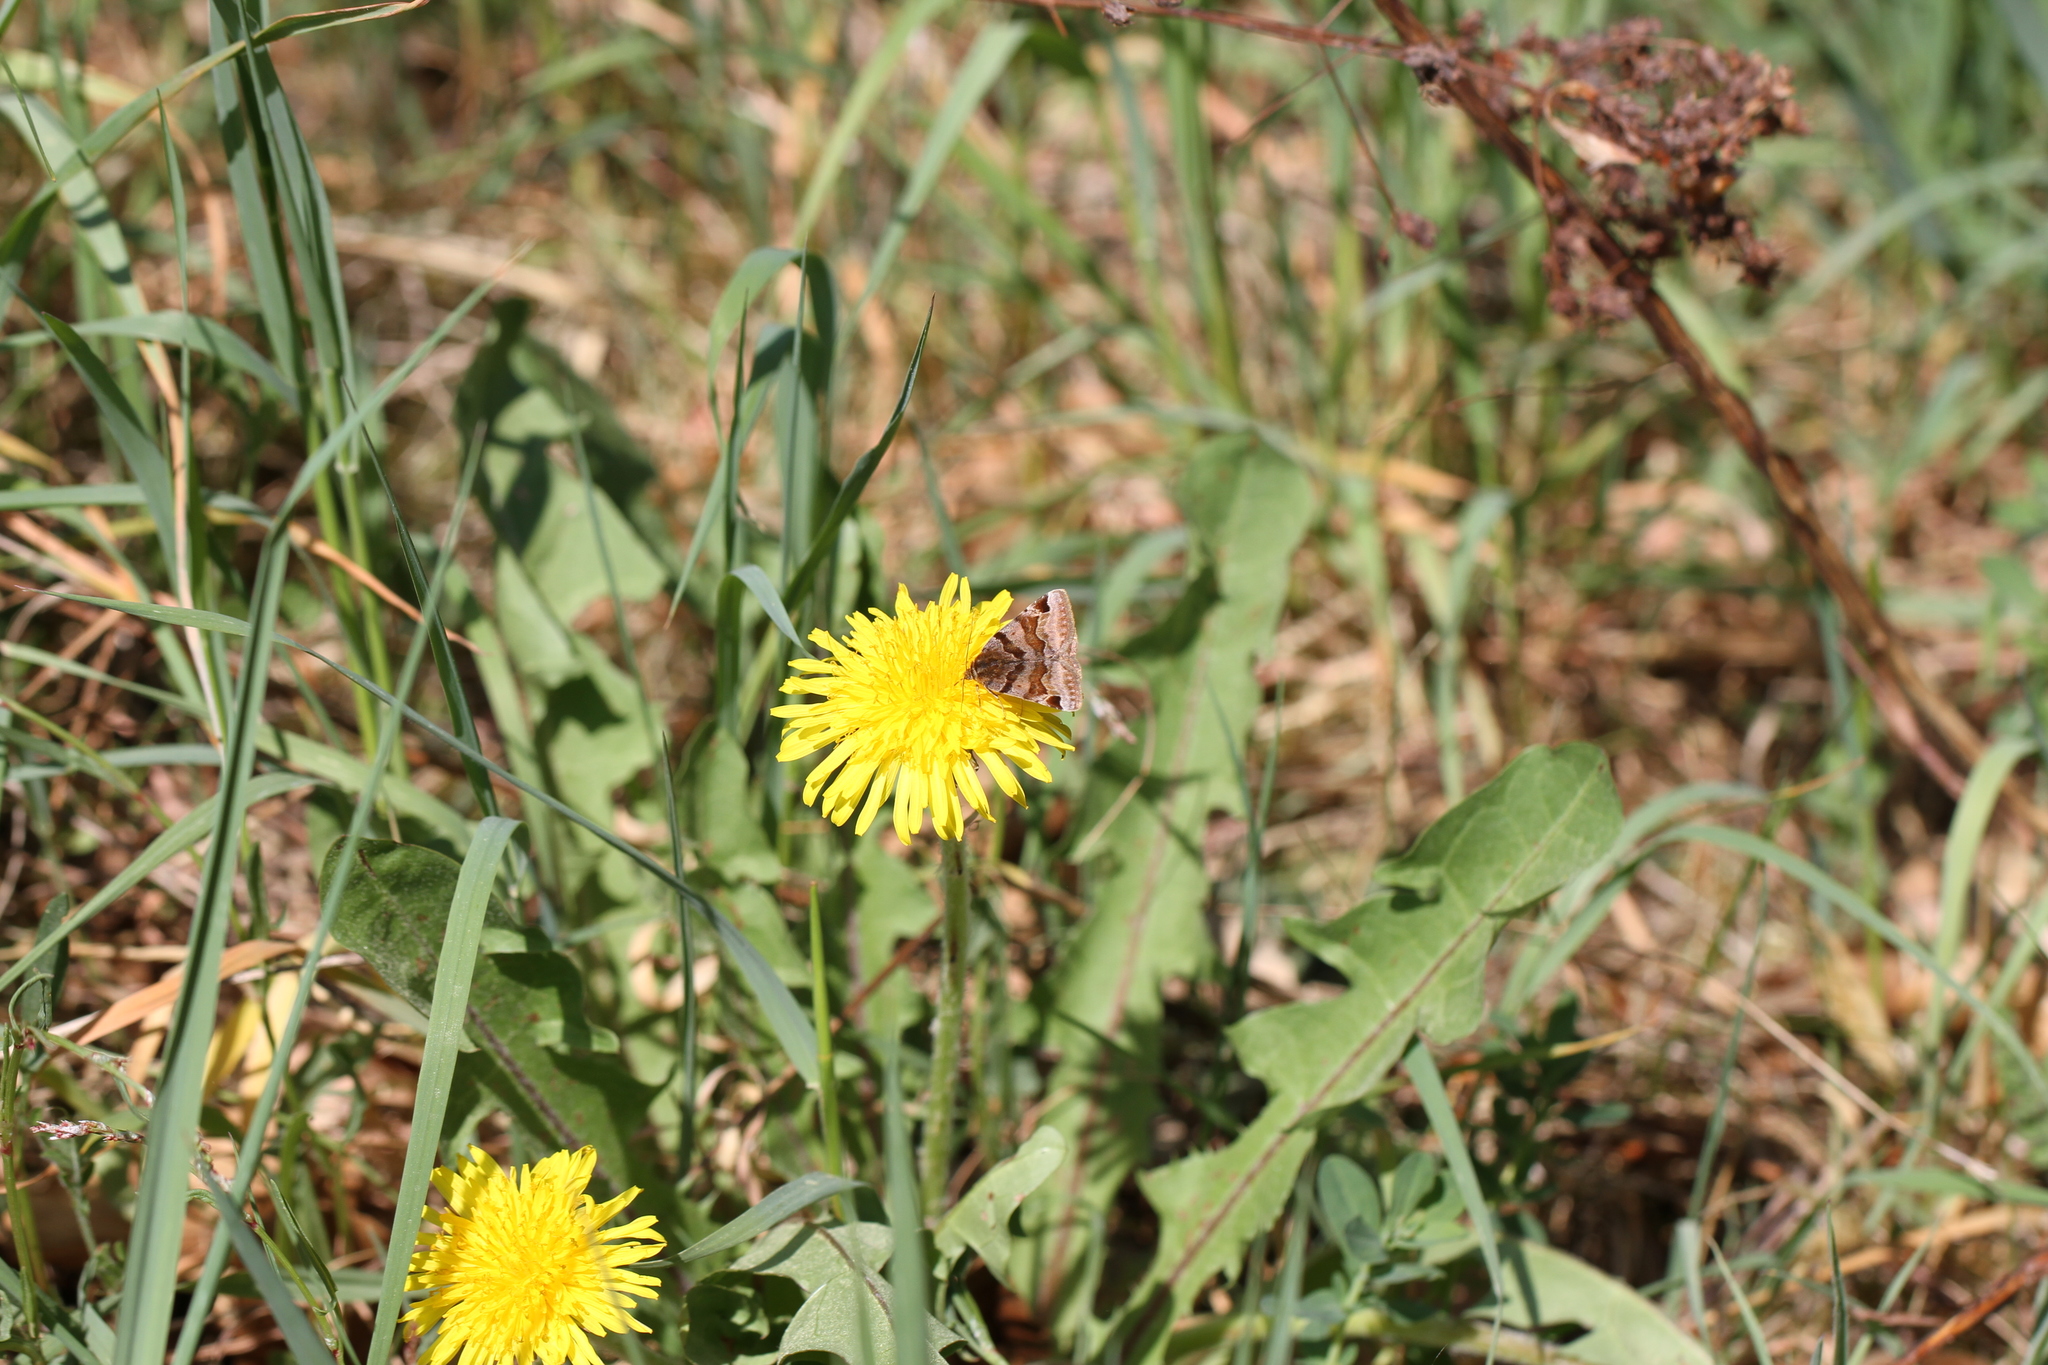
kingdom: Animalia
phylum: Arthropoda
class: Insecta
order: Lepidoptera
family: Erebidae
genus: Euclidia
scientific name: Euclidia glyphica
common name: Burnet companion
